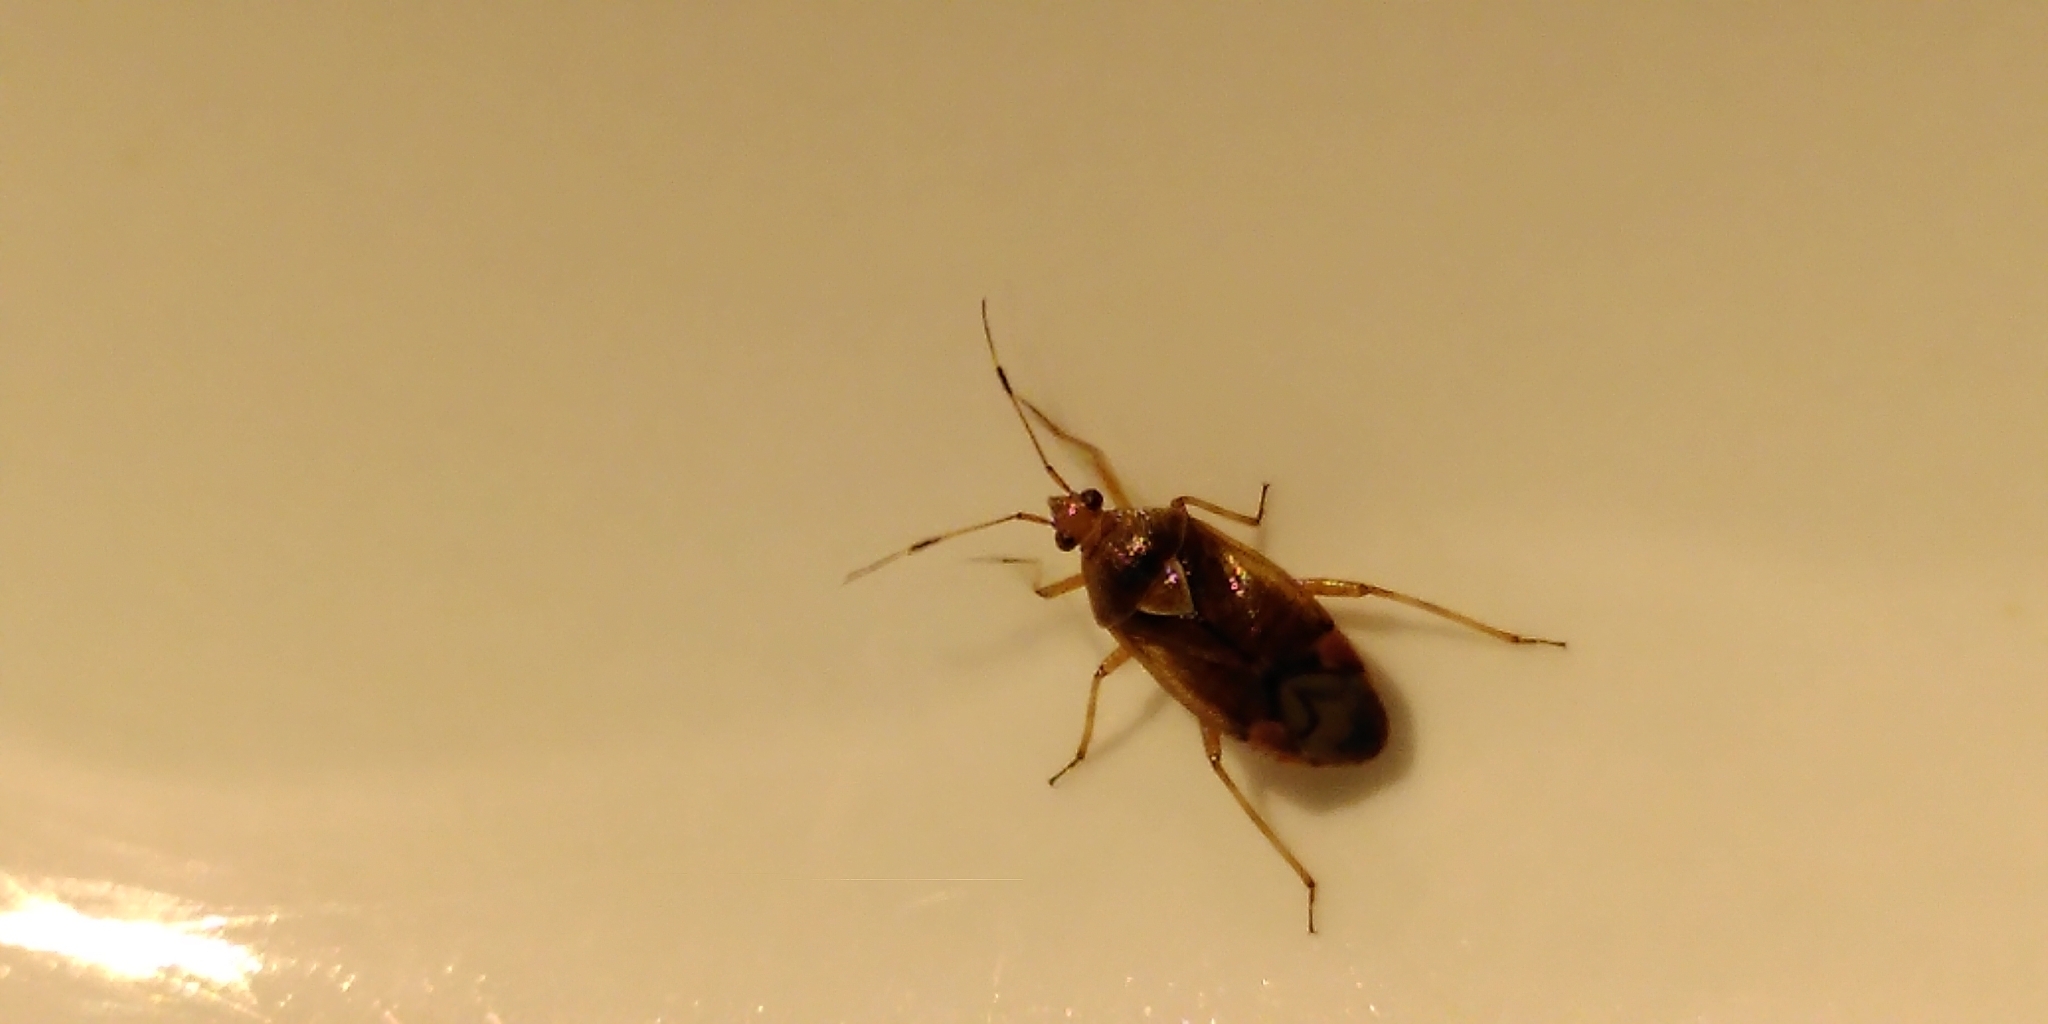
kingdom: Animalia
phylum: Arthropoda
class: Insecta
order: Hemiptera
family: Miridae
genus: Deraeocoris
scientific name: Deraeocoris flavilinea
